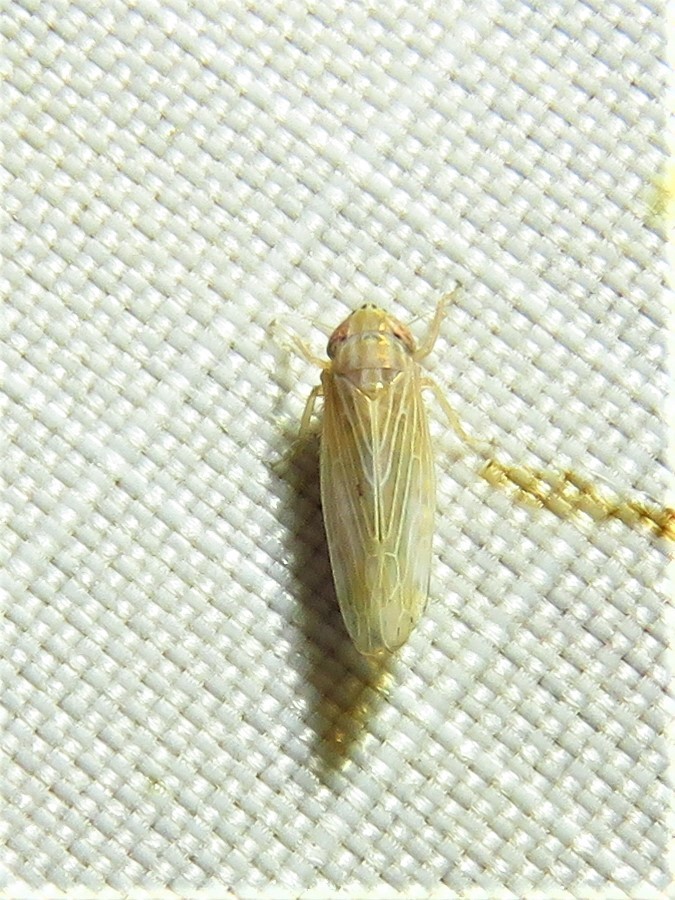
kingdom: Animalia
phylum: Arthropoda
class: Insecta
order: Hemiptera
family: Cicadellidae
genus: Graminella
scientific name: Graminella fitchii
